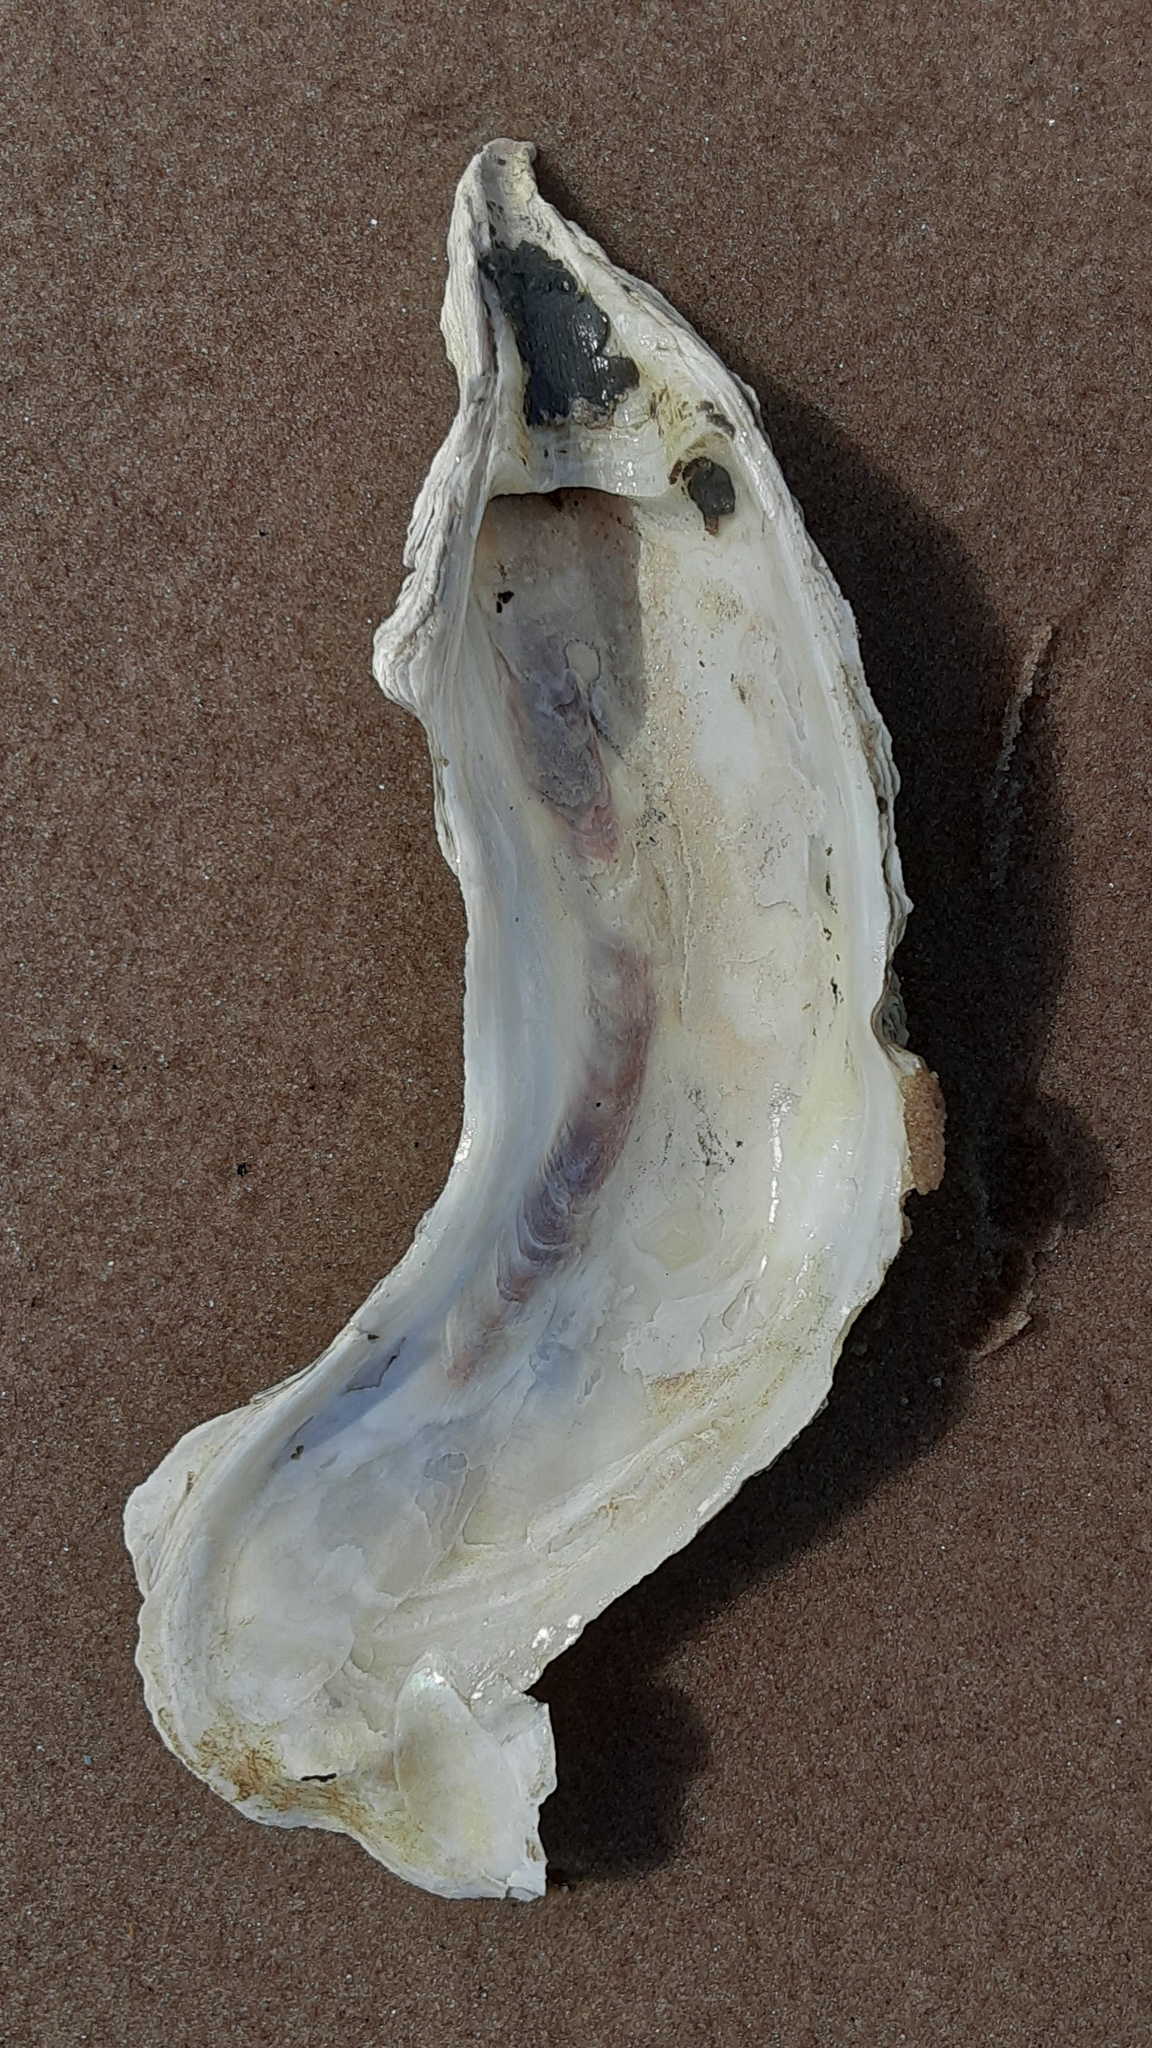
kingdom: Animalia
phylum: Mollusca
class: Bivalvia
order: Ostreida
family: Ostreidae
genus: Crassostrea
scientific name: Crassostrea virginica
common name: American oyster
